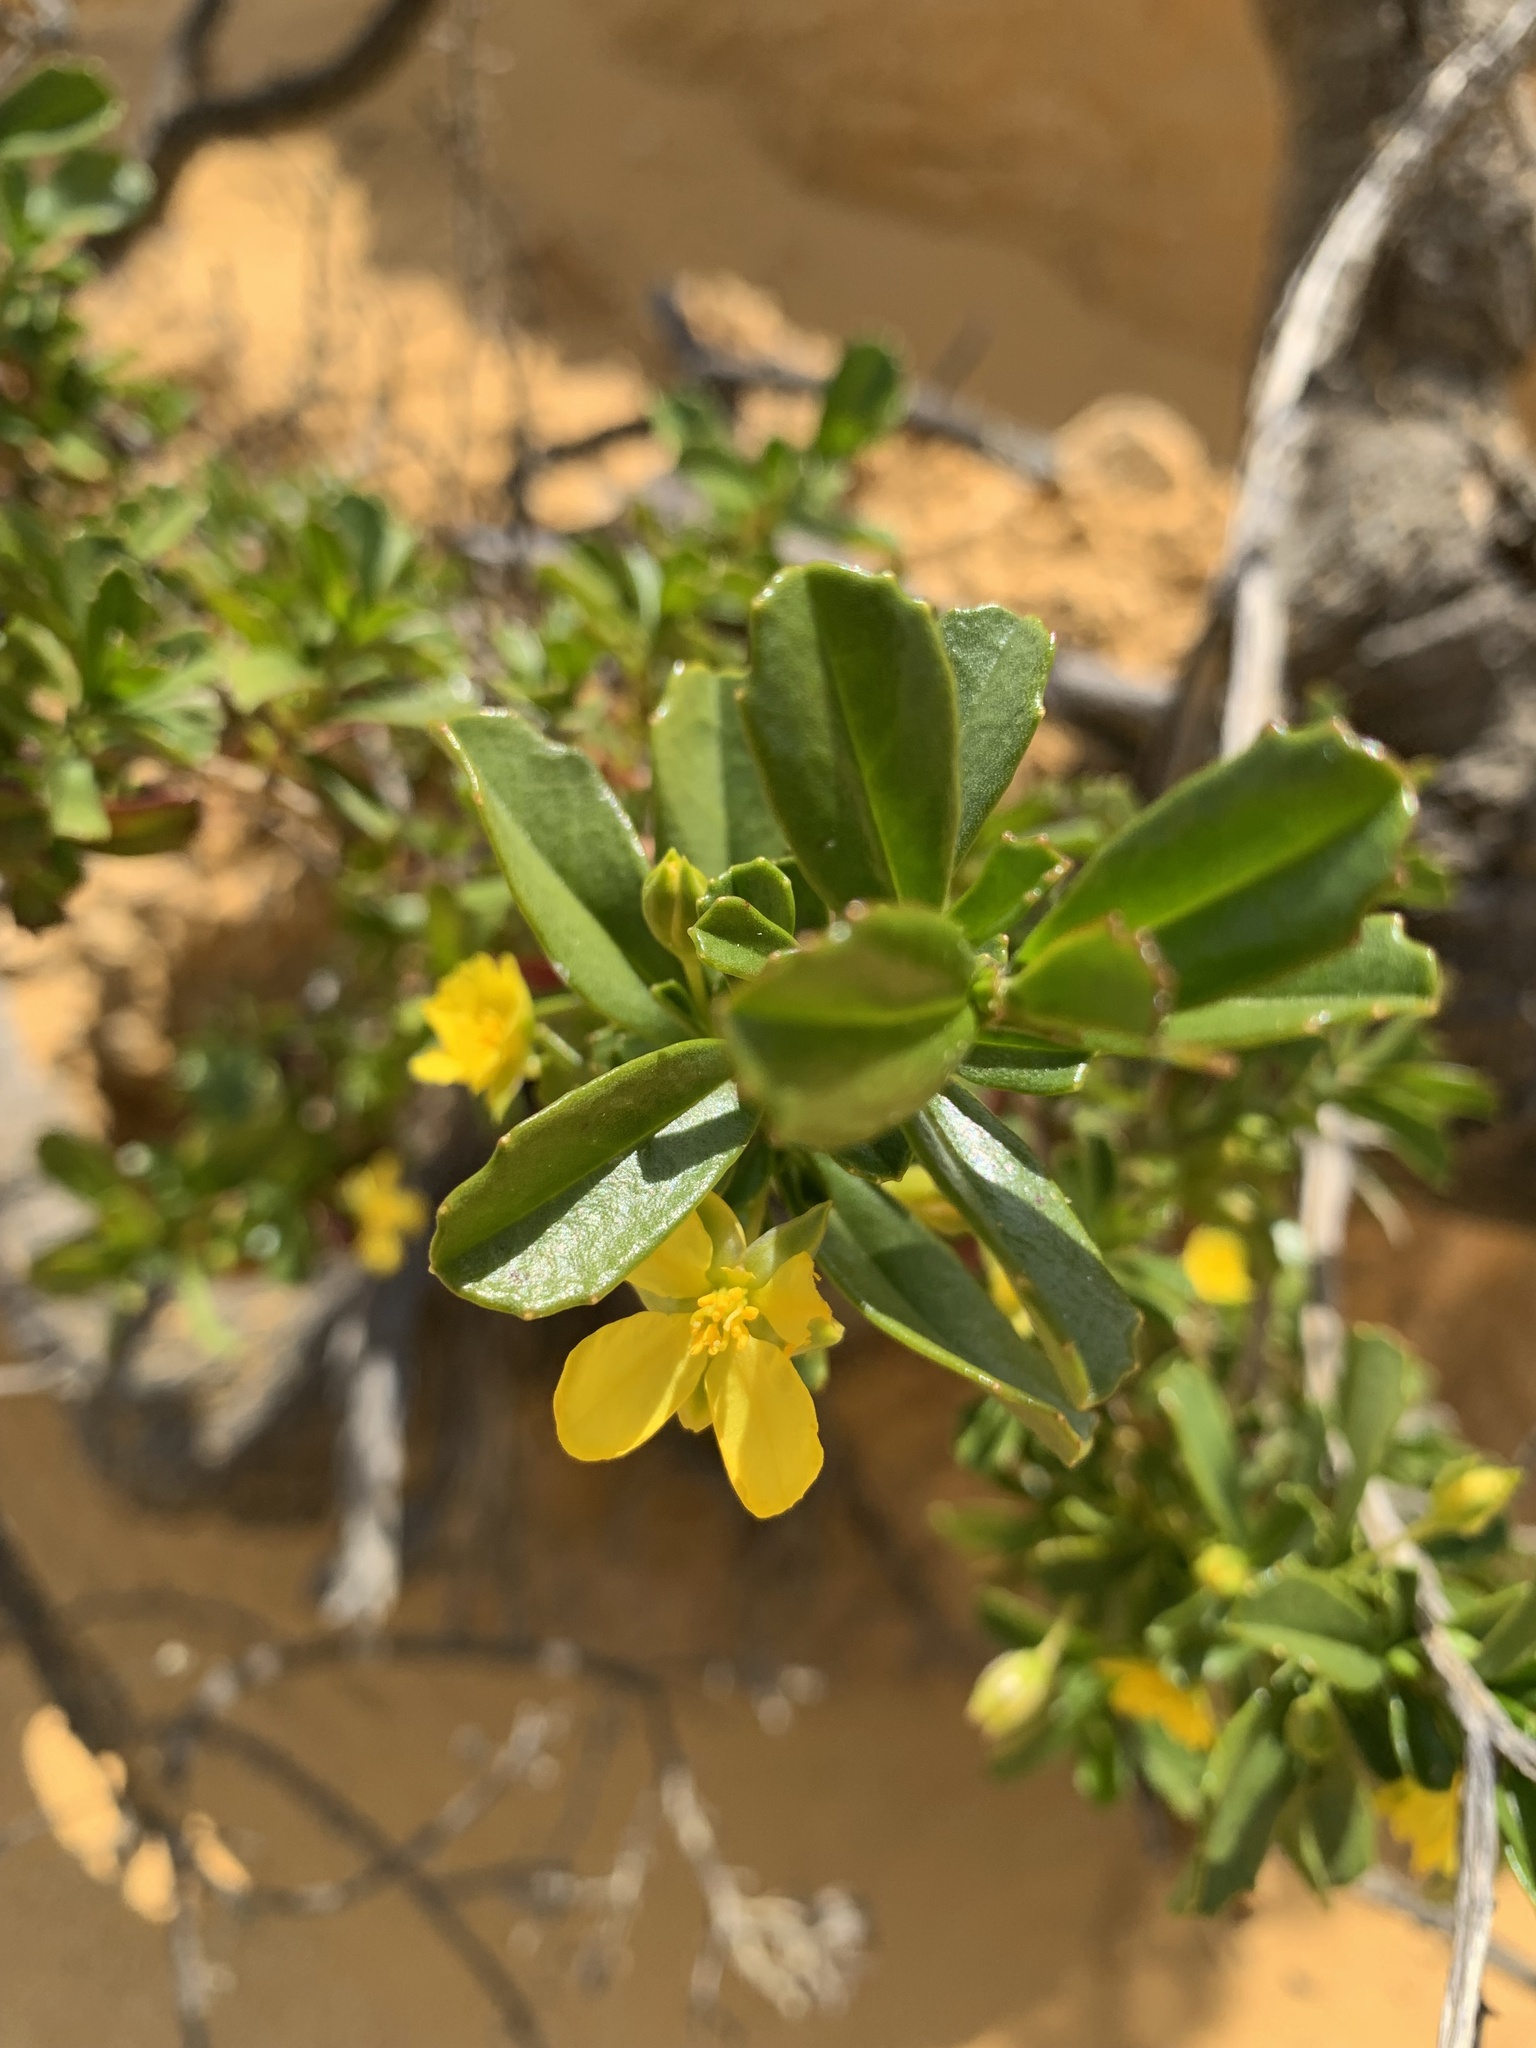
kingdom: Plantae
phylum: Tracheophyta
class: Magnoliopsida
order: Dilleniales
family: Dilleniaceae
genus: Hibbertia
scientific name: Hibbertia racemosa
